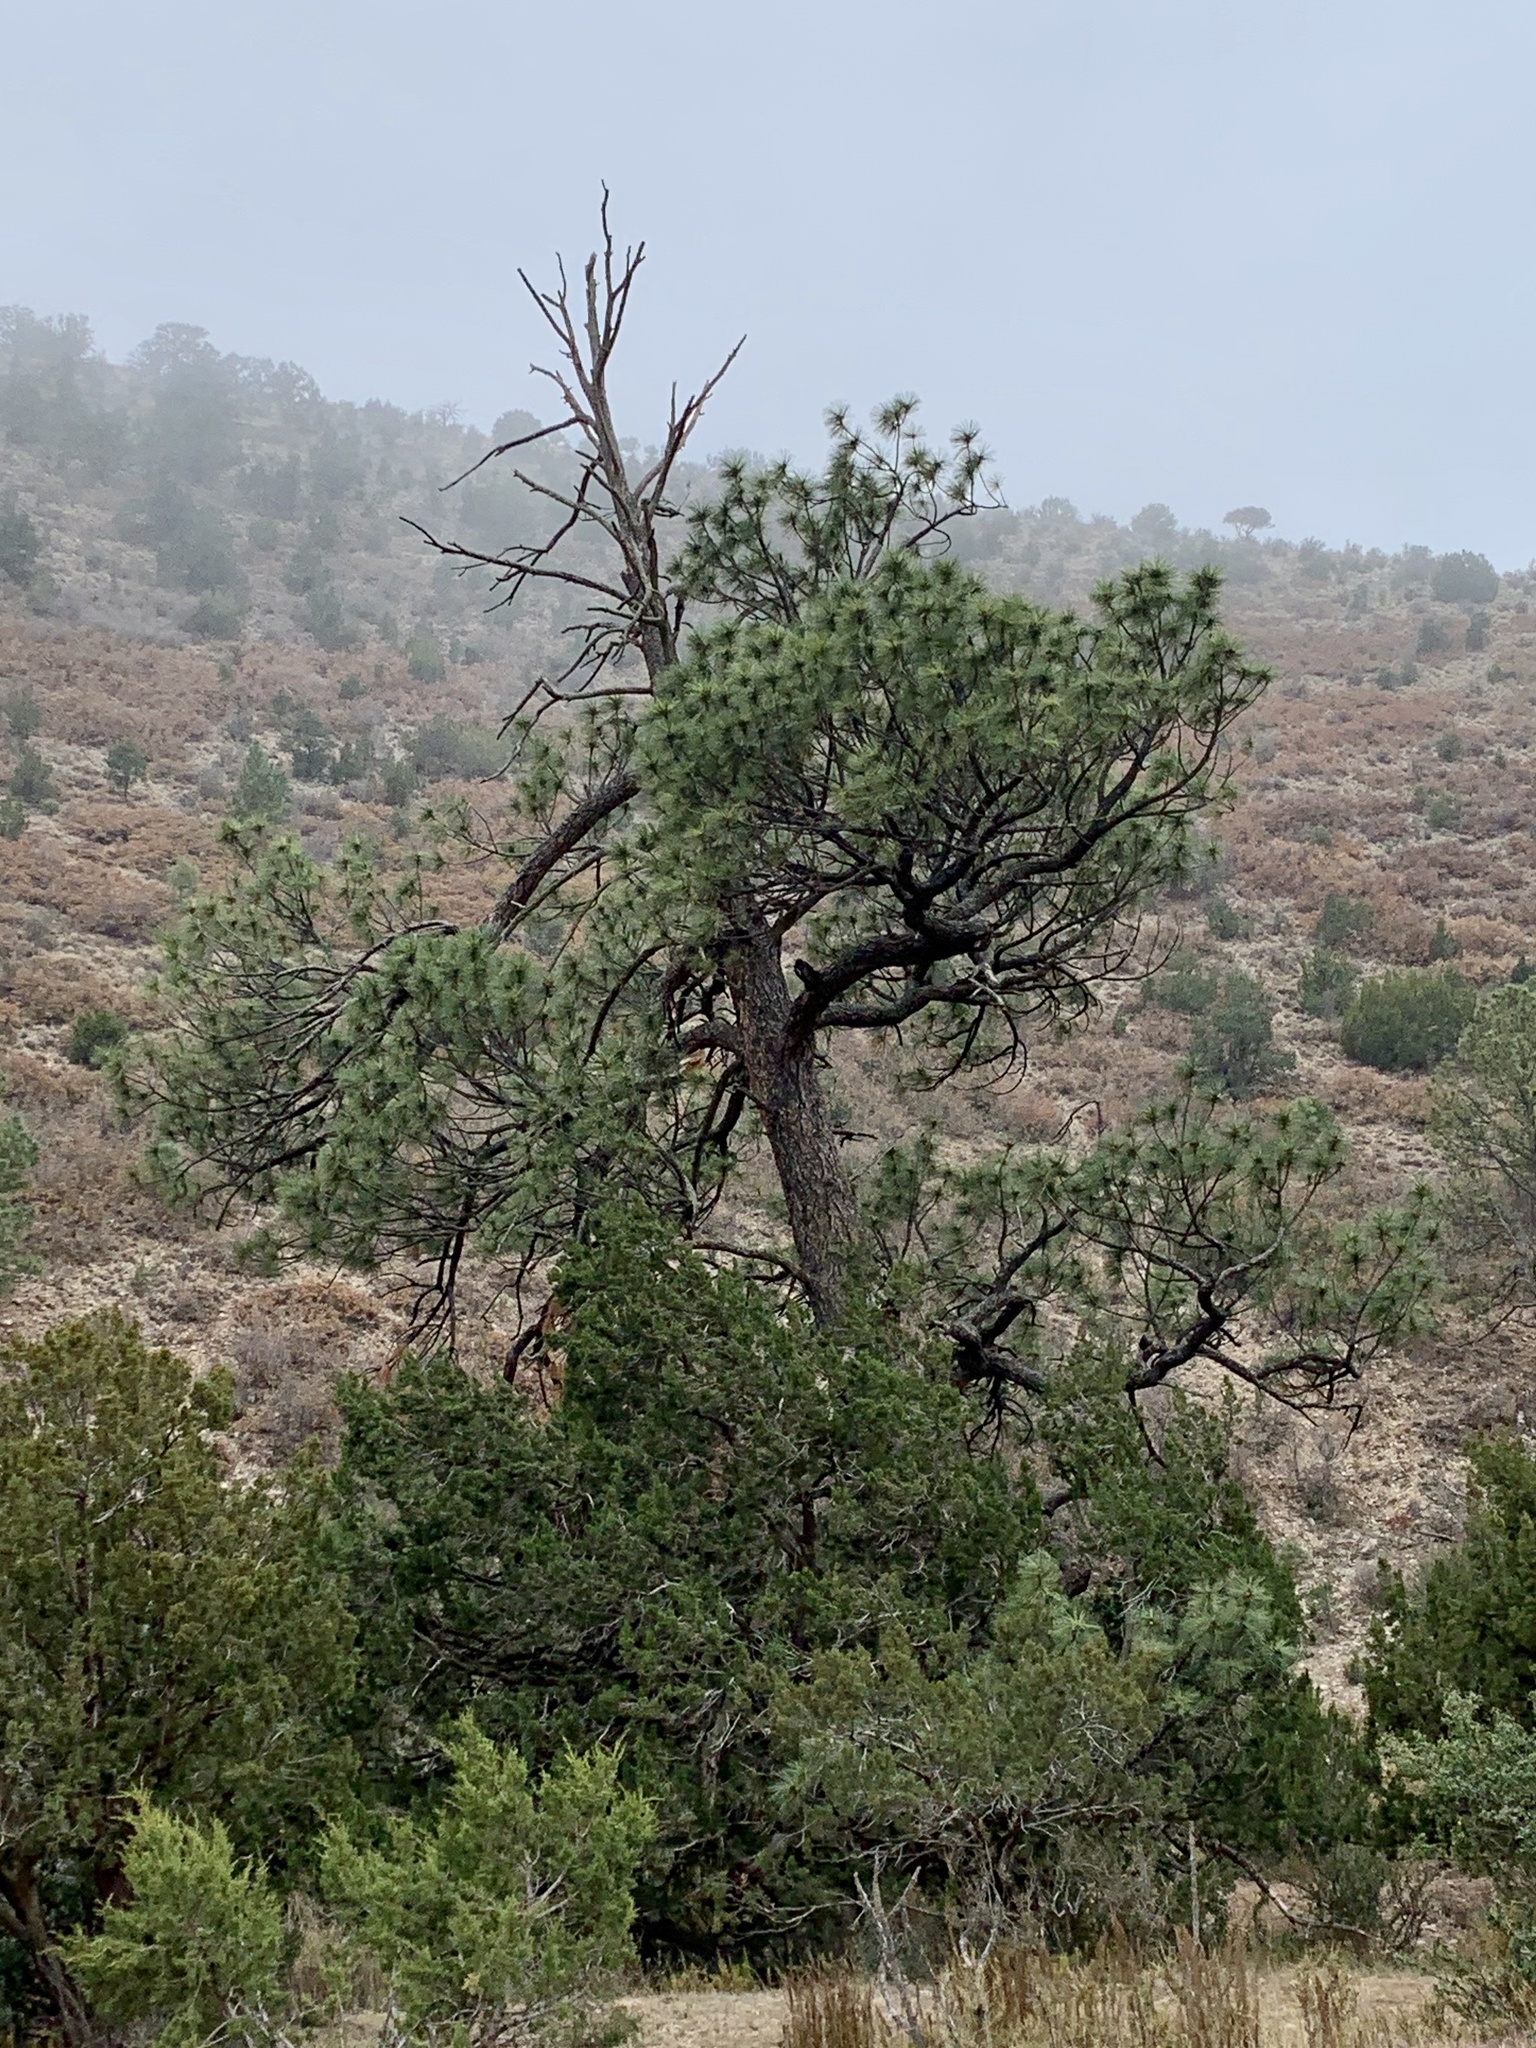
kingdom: Plantae
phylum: Tracheophyta
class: Pinopsida
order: Pinales
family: Pinaceae
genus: Pinus
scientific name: Pinus ponderosa
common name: Western yellow-pine
